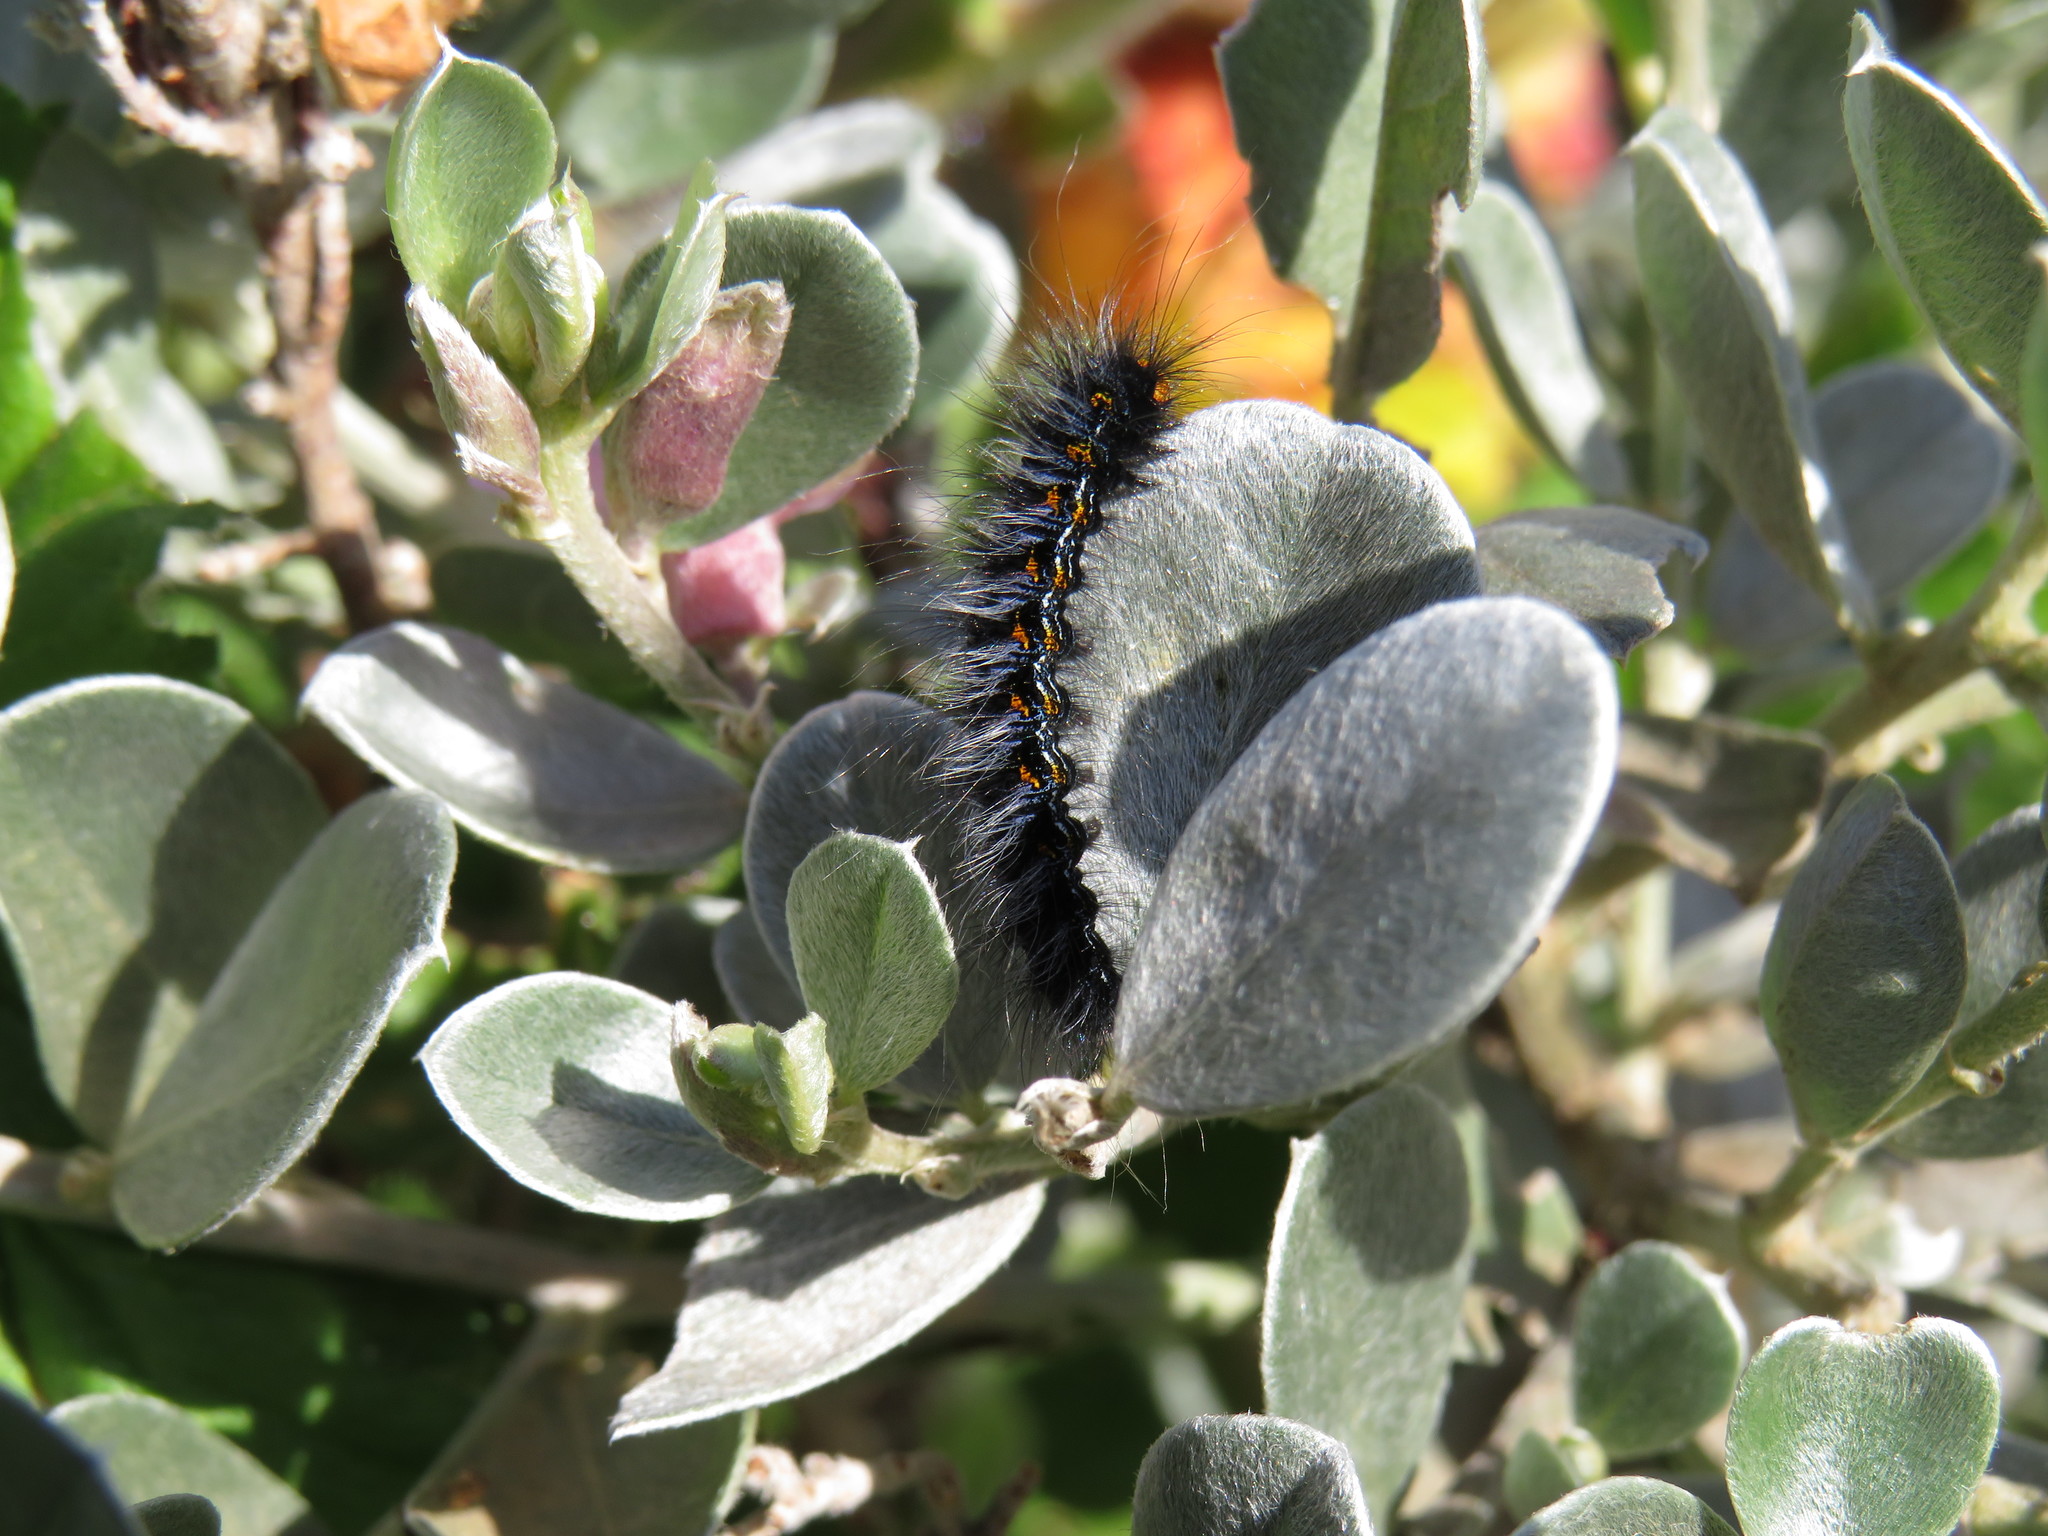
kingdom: Animalia
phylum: Arthropoda
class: Insecta
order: Lepidoptera
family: Lasiocampidae
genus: Mesocelis
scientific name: Mesocelis monticola
